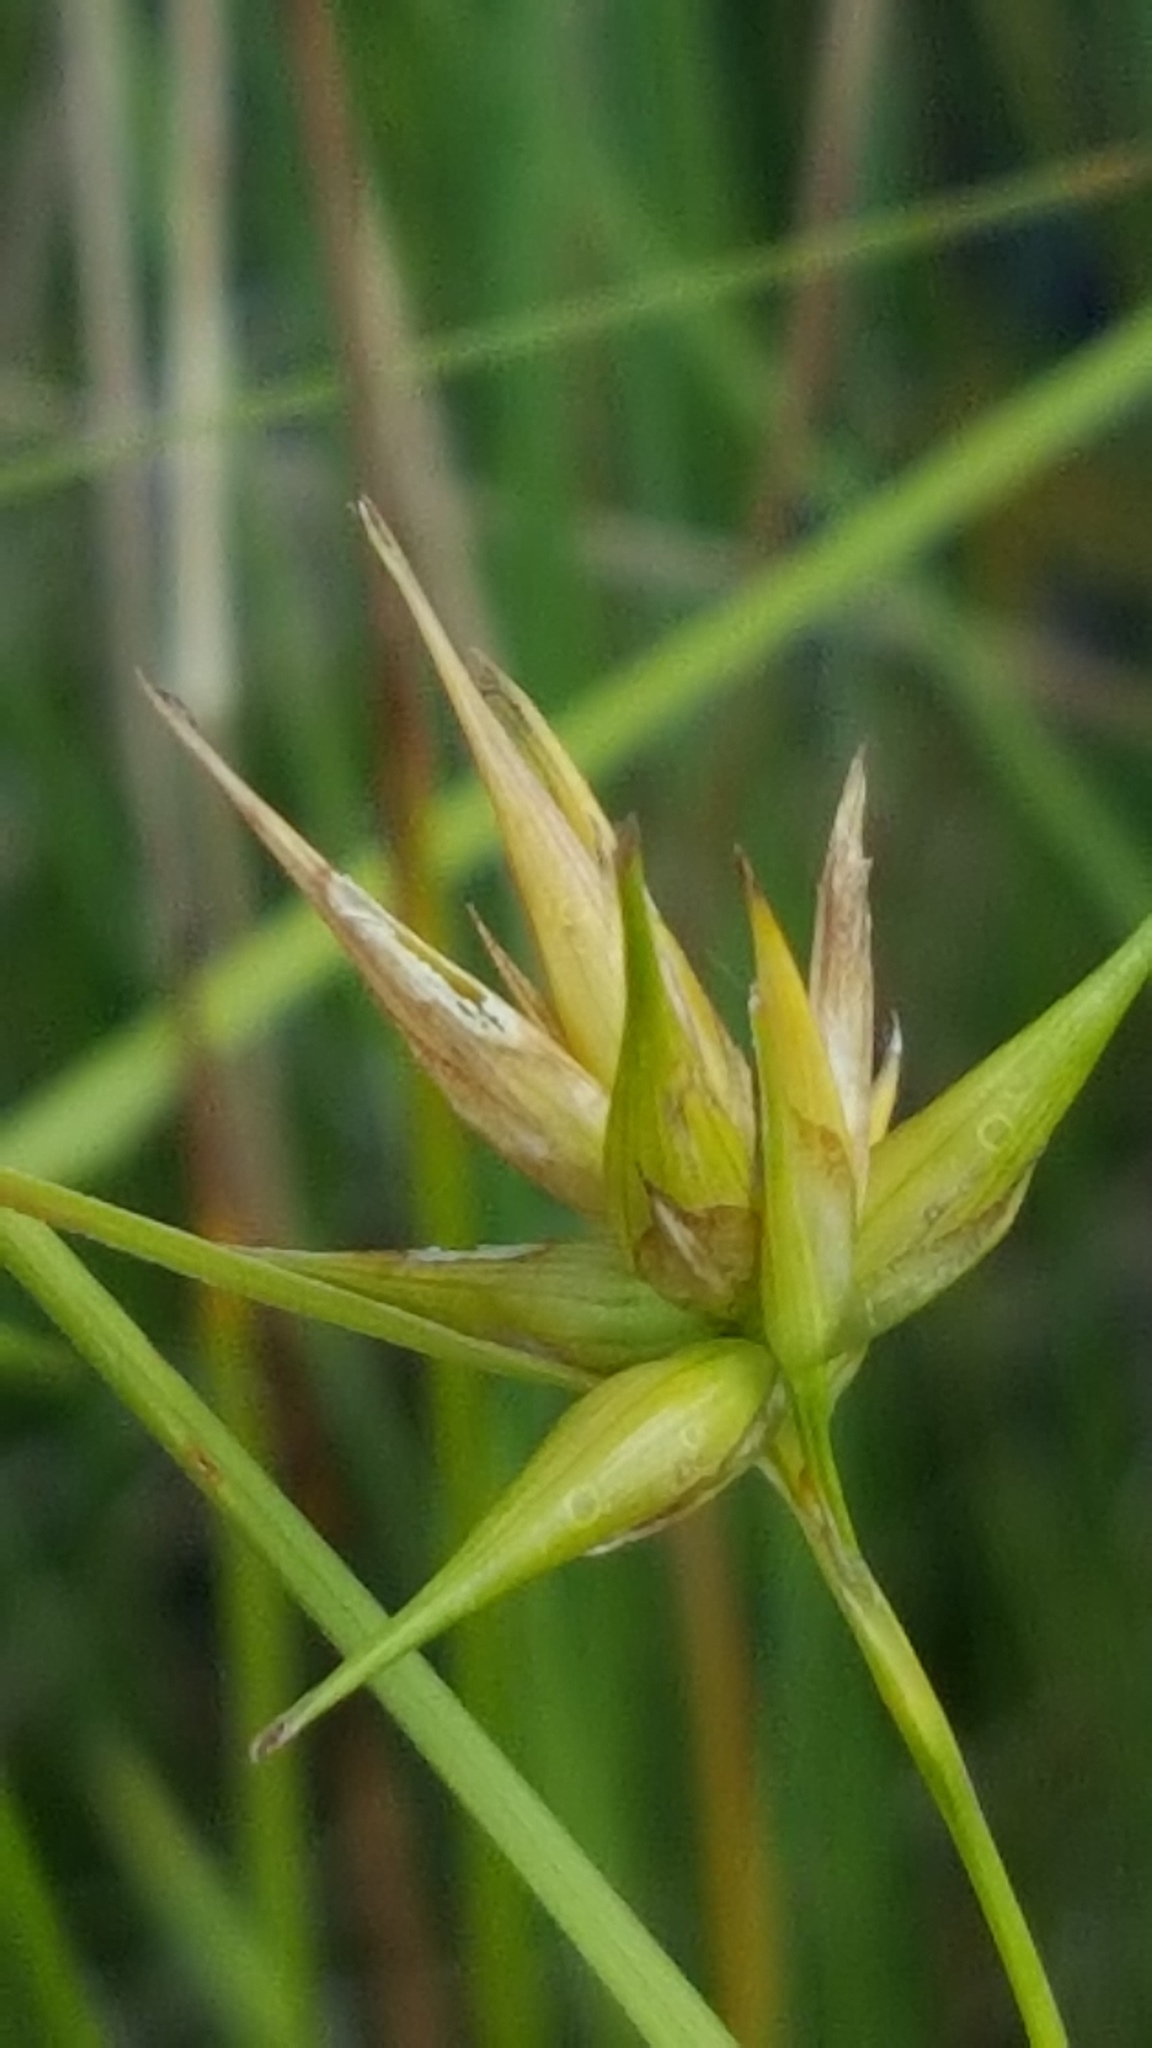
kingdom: Plantae
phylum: Tracheophyta
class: Liliopsida
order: Poales
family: Cyperaceae
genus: Carex
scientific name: Carex michauxiana
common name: Michaux's sedge
